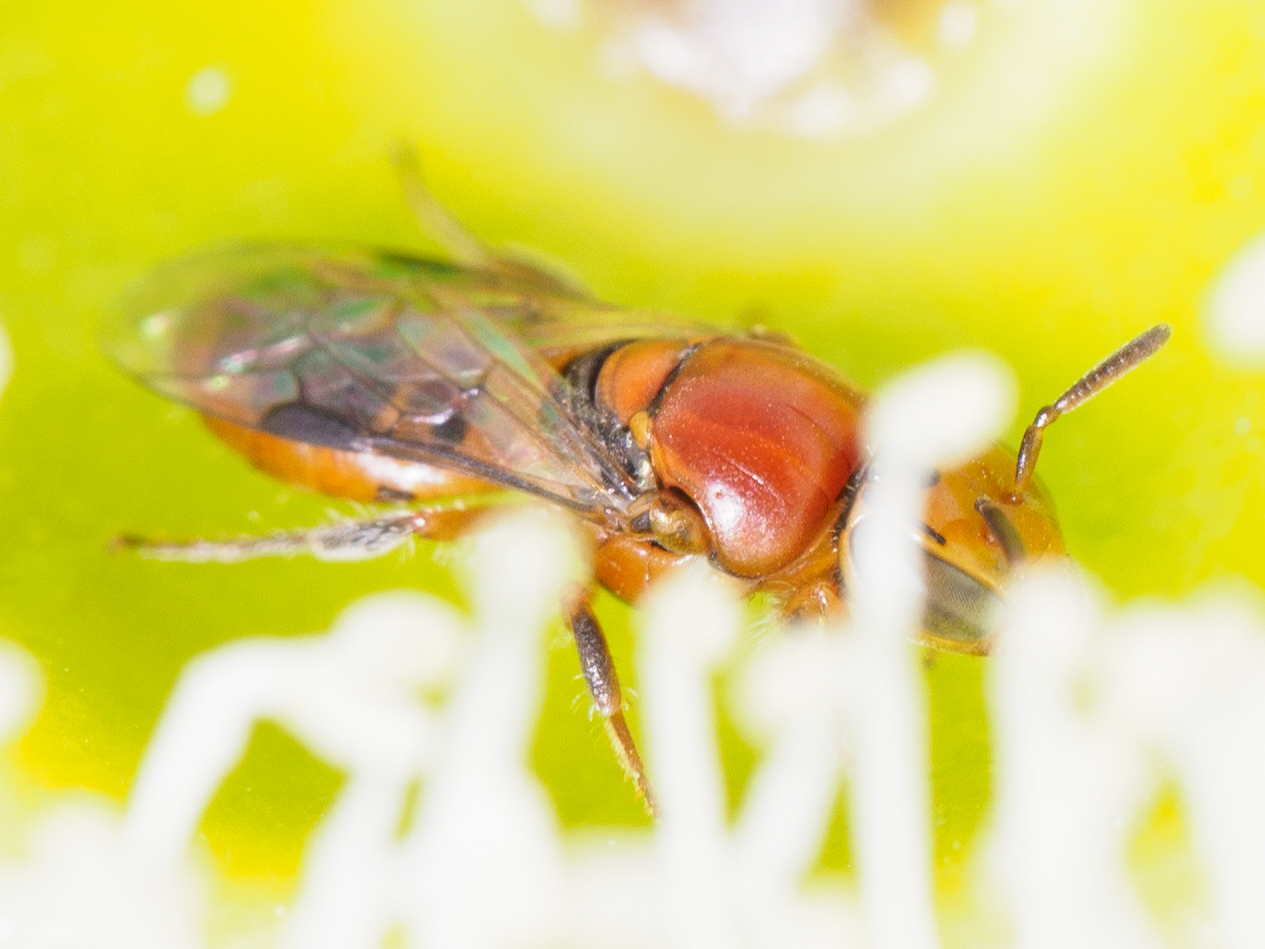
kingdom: Animalia
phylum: Arthropoda
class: Insecta
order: Hymenoptera
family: Colletidae
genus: Pachyprosopis
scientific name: Pachyprosopis kellyi
